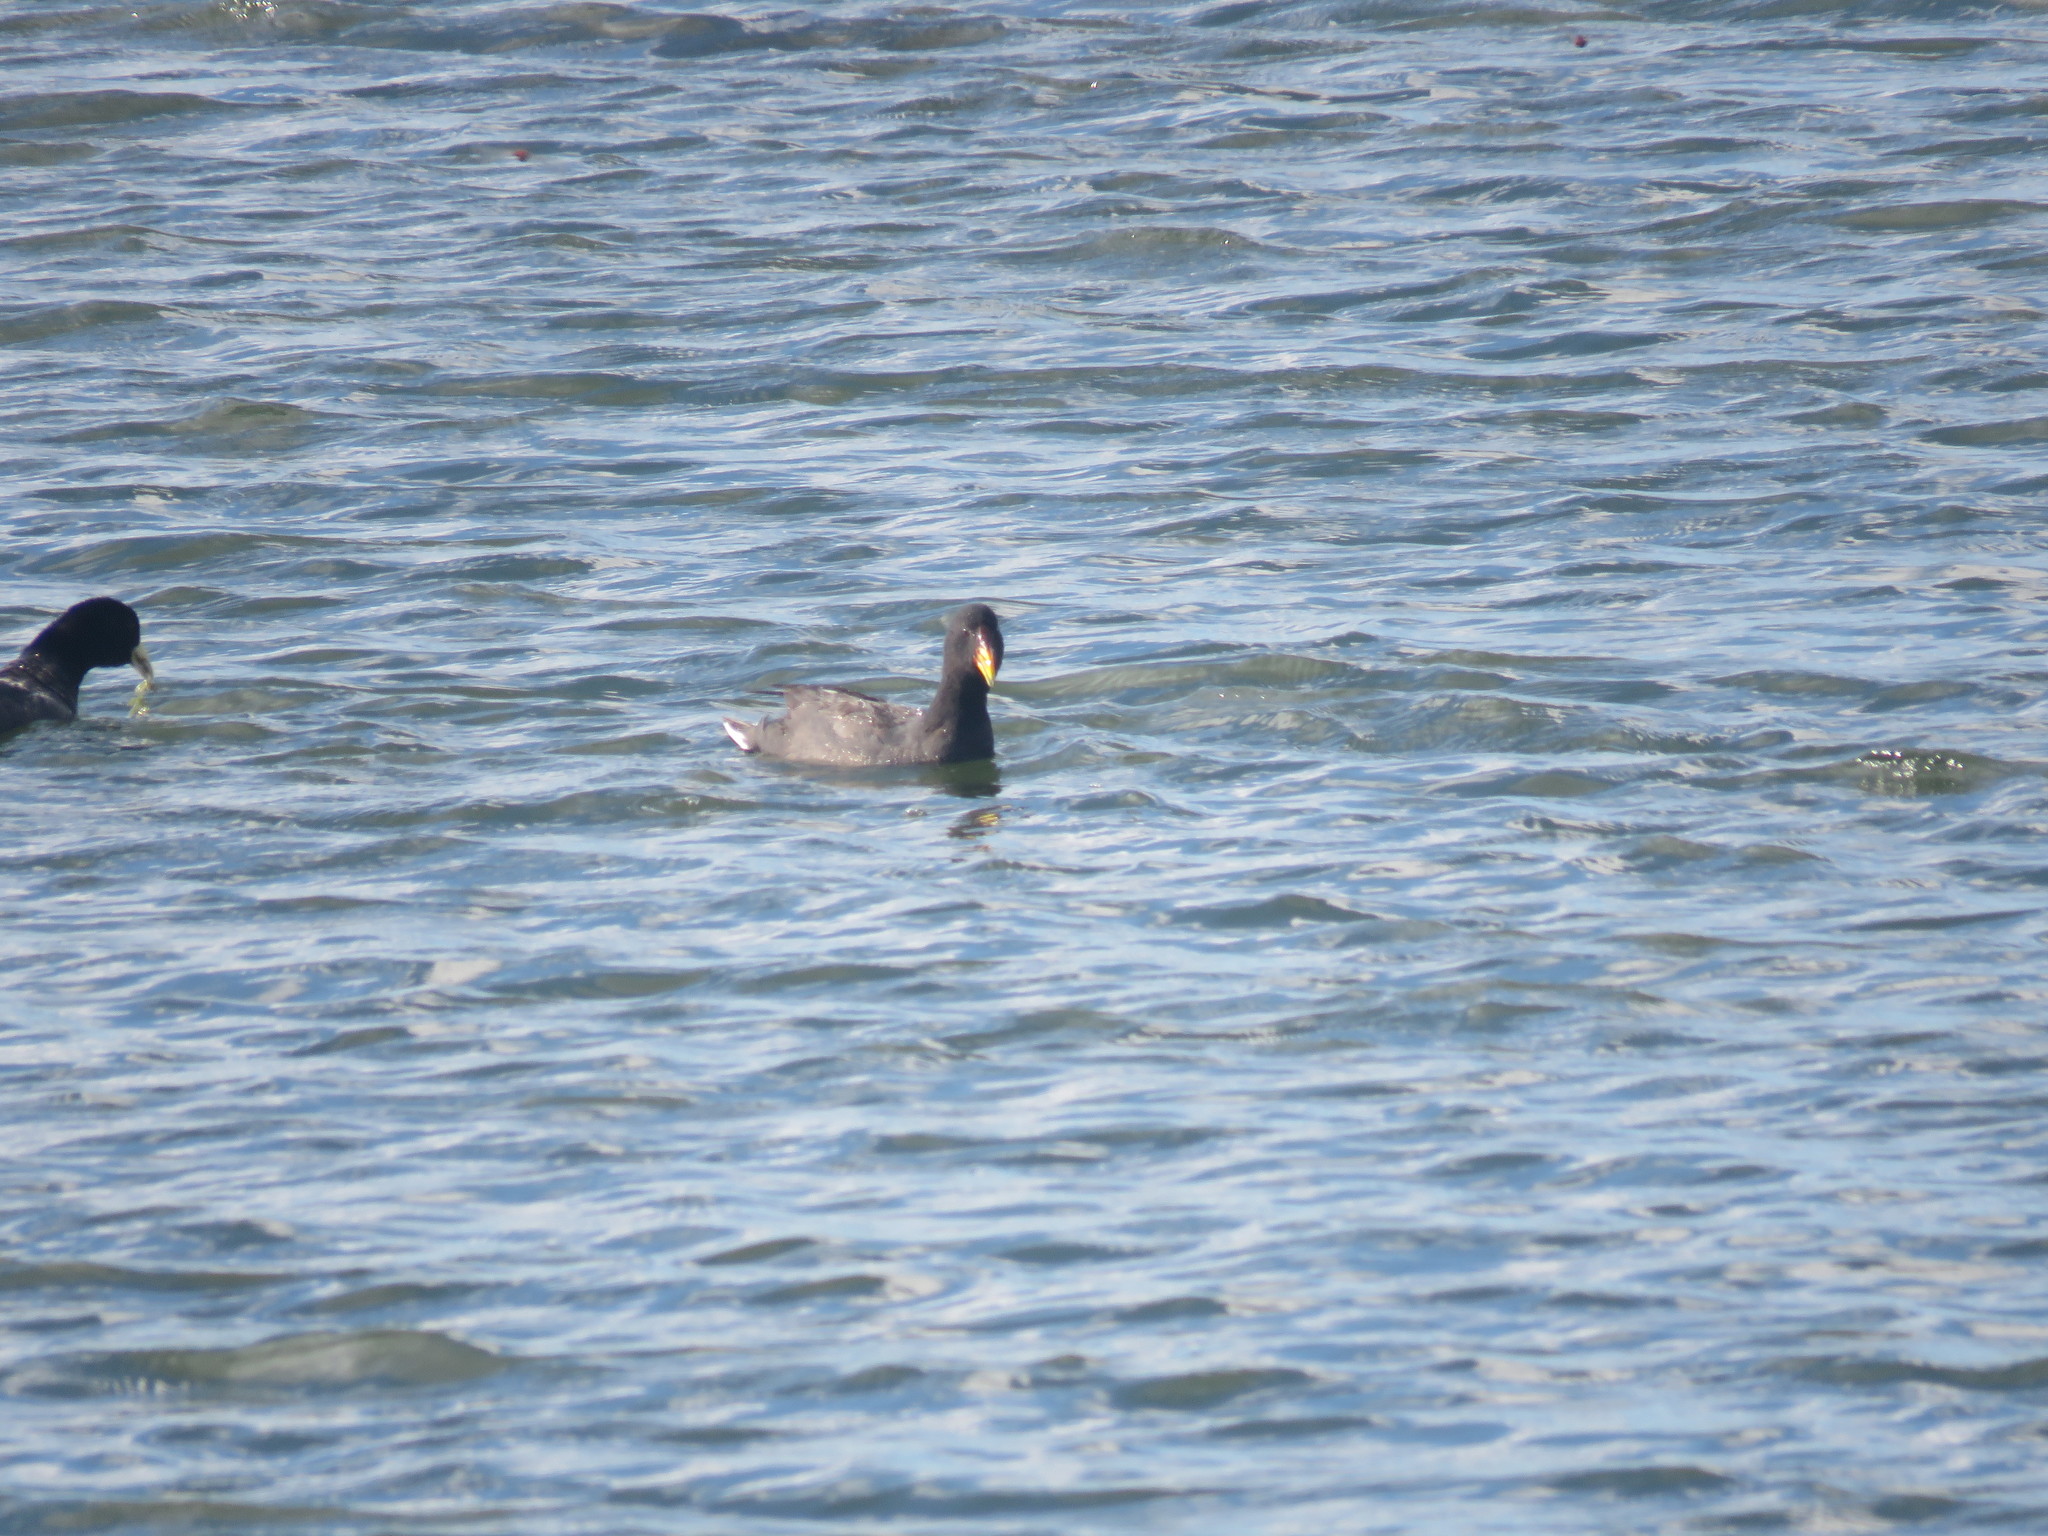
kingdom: Animalia
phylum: Chordata
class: Aves
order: Gruiformes
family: Rallidae
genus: Fulica
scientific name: Fulica rufifrons
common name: Red-fronted coot
